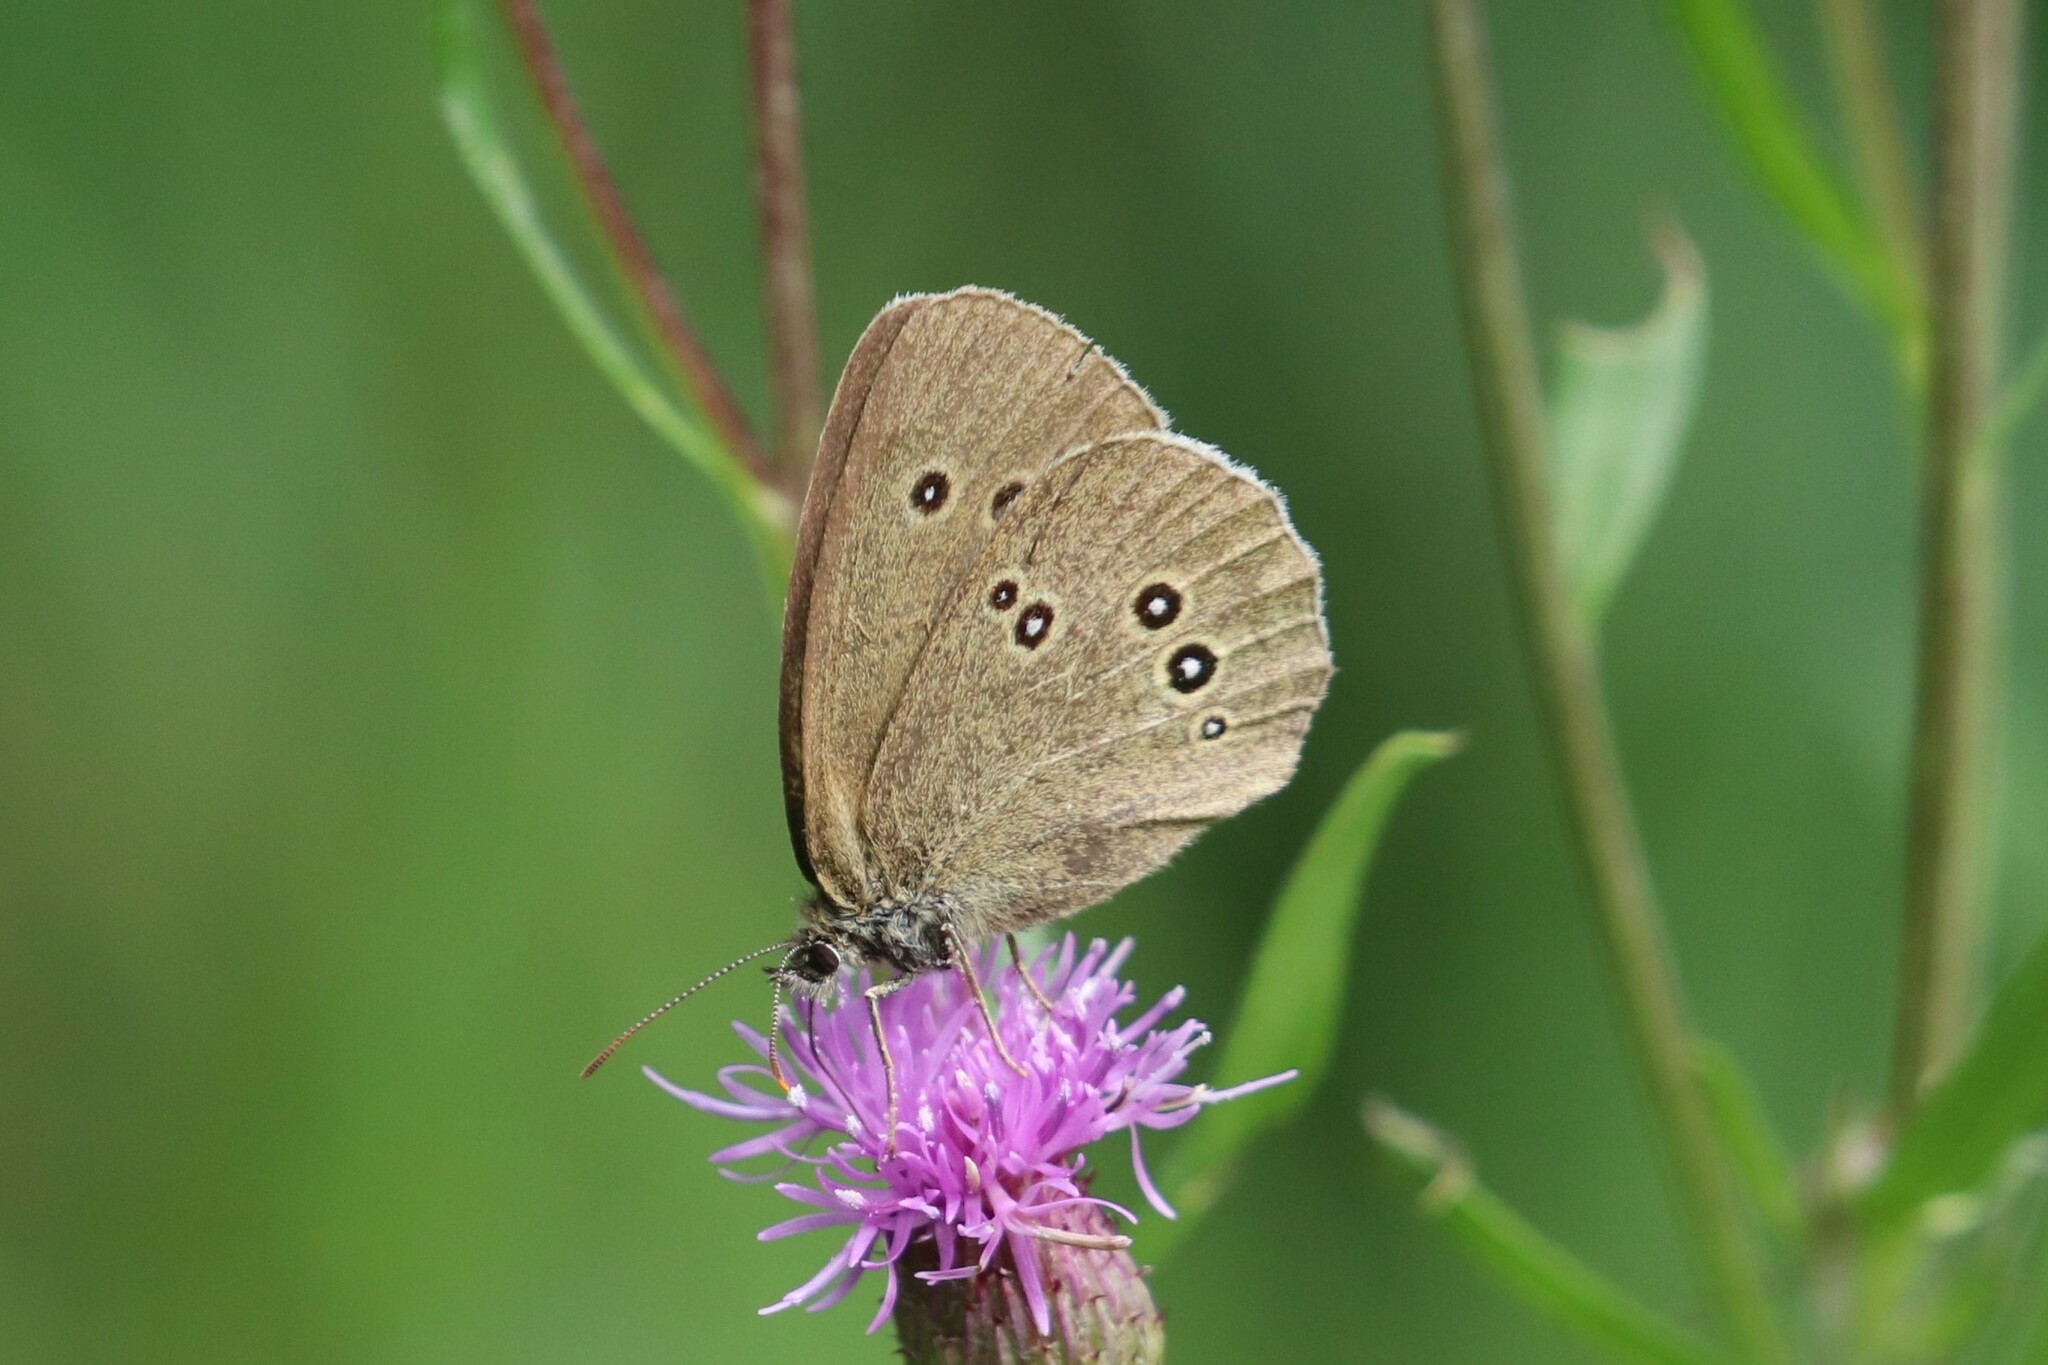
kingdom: Animalia
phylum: Arthropoda
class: Insecta
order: Lepidoptera
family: Nymphalidae
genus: Aphantopus
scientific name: Aphantopus hyperantus
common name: Ringlet
